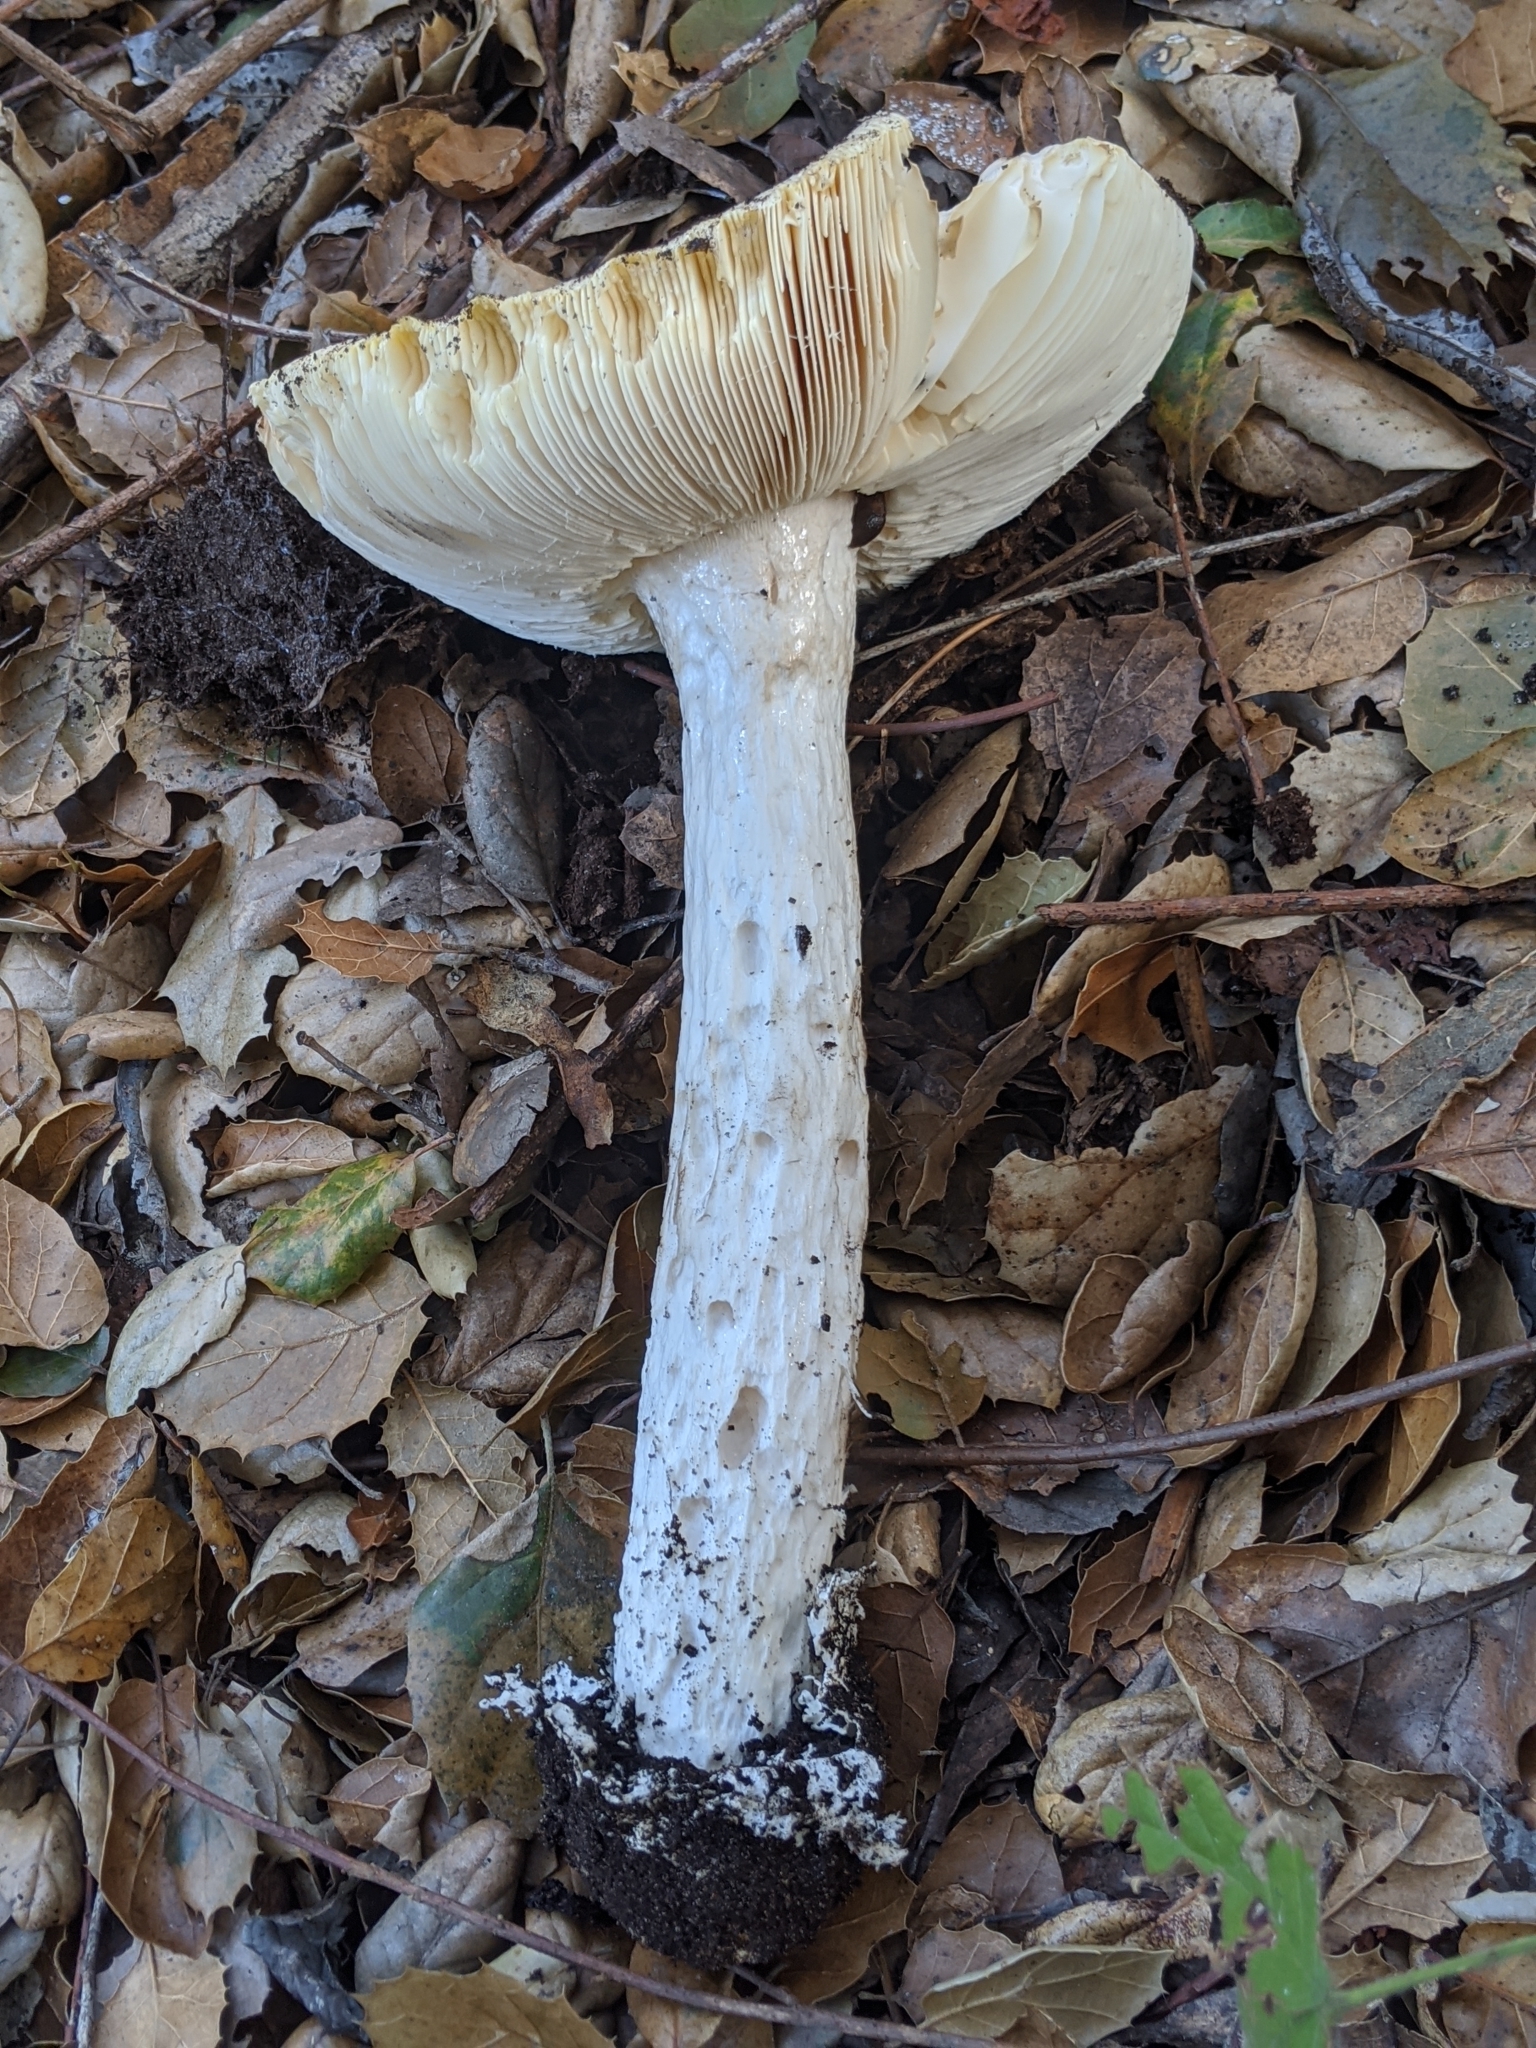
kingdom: Fungi
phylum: Basidiomycota
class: Agaricomycetes
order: Agaricales
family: Amanitaceae
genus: Amanita
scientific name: Amanita vernicoccora
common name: Spring coccora
